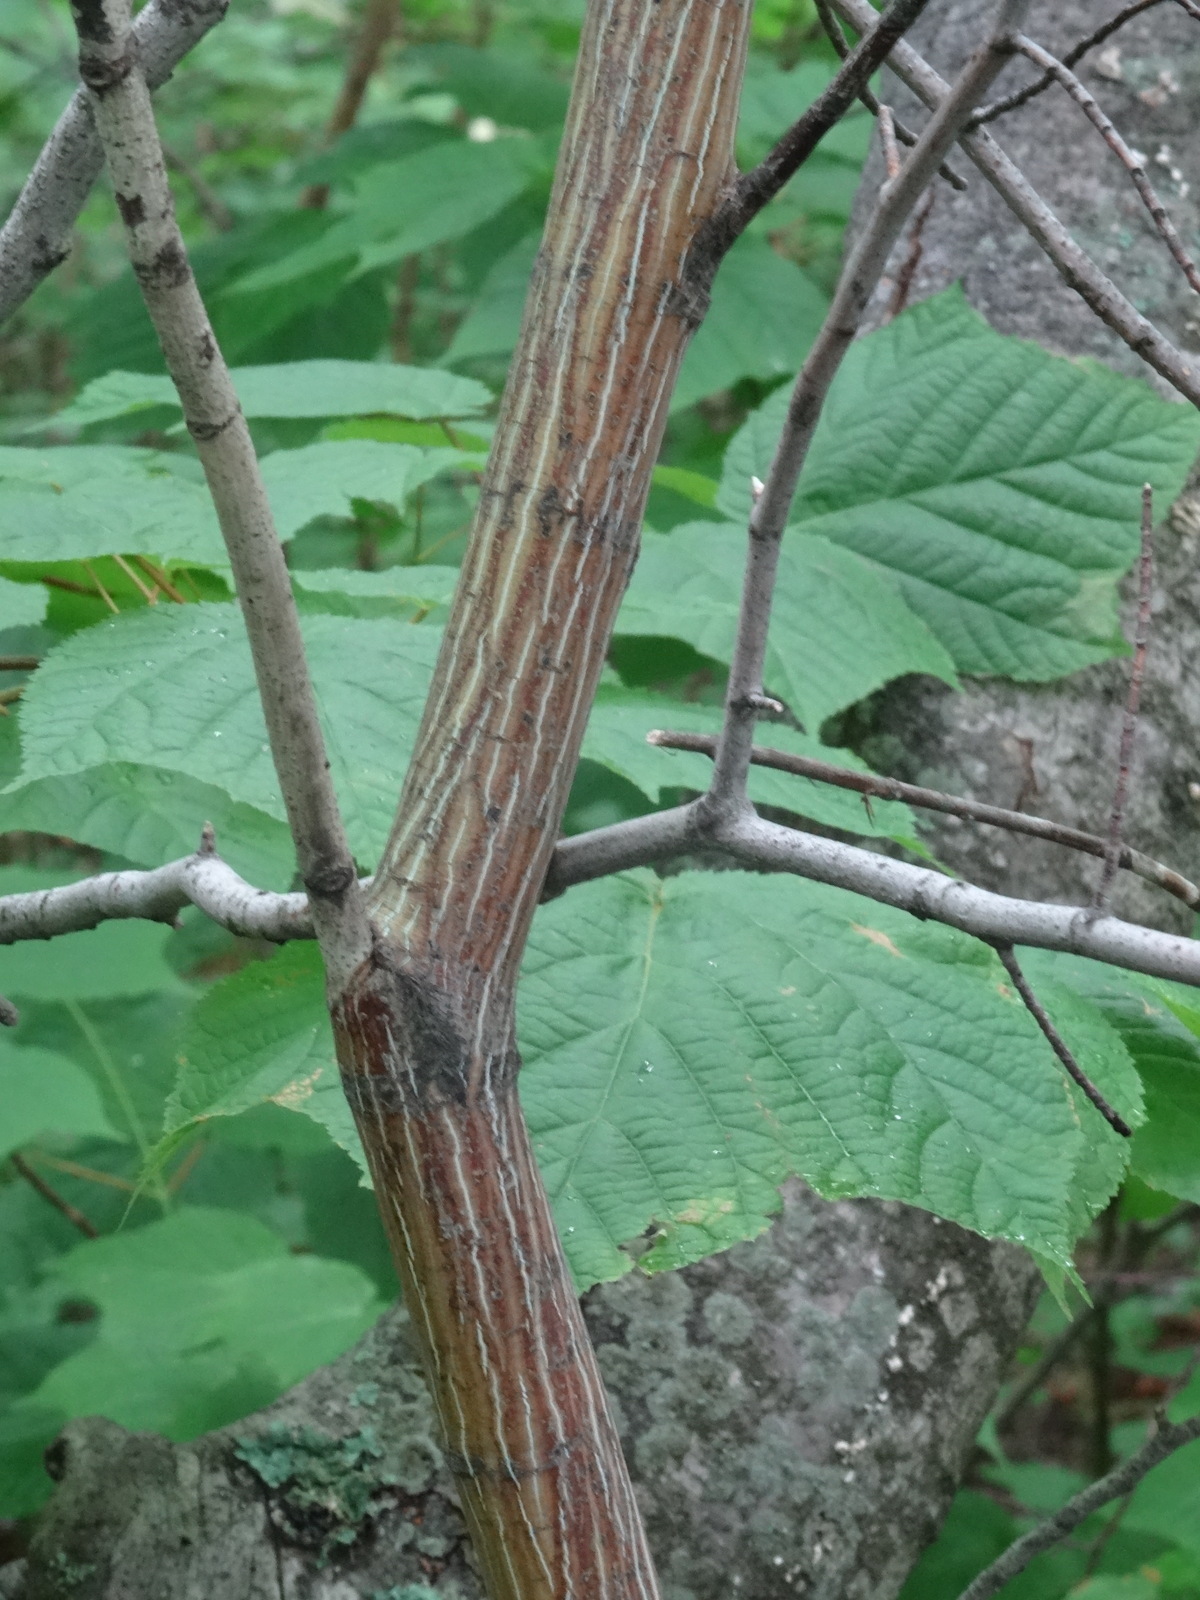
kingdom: Plantae
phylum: Tracheophyta
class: Magnoliopsida
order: Sapindales
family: Sapindaceae
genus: Acer
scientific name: Acer pensylvanicum
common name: Moosewood
